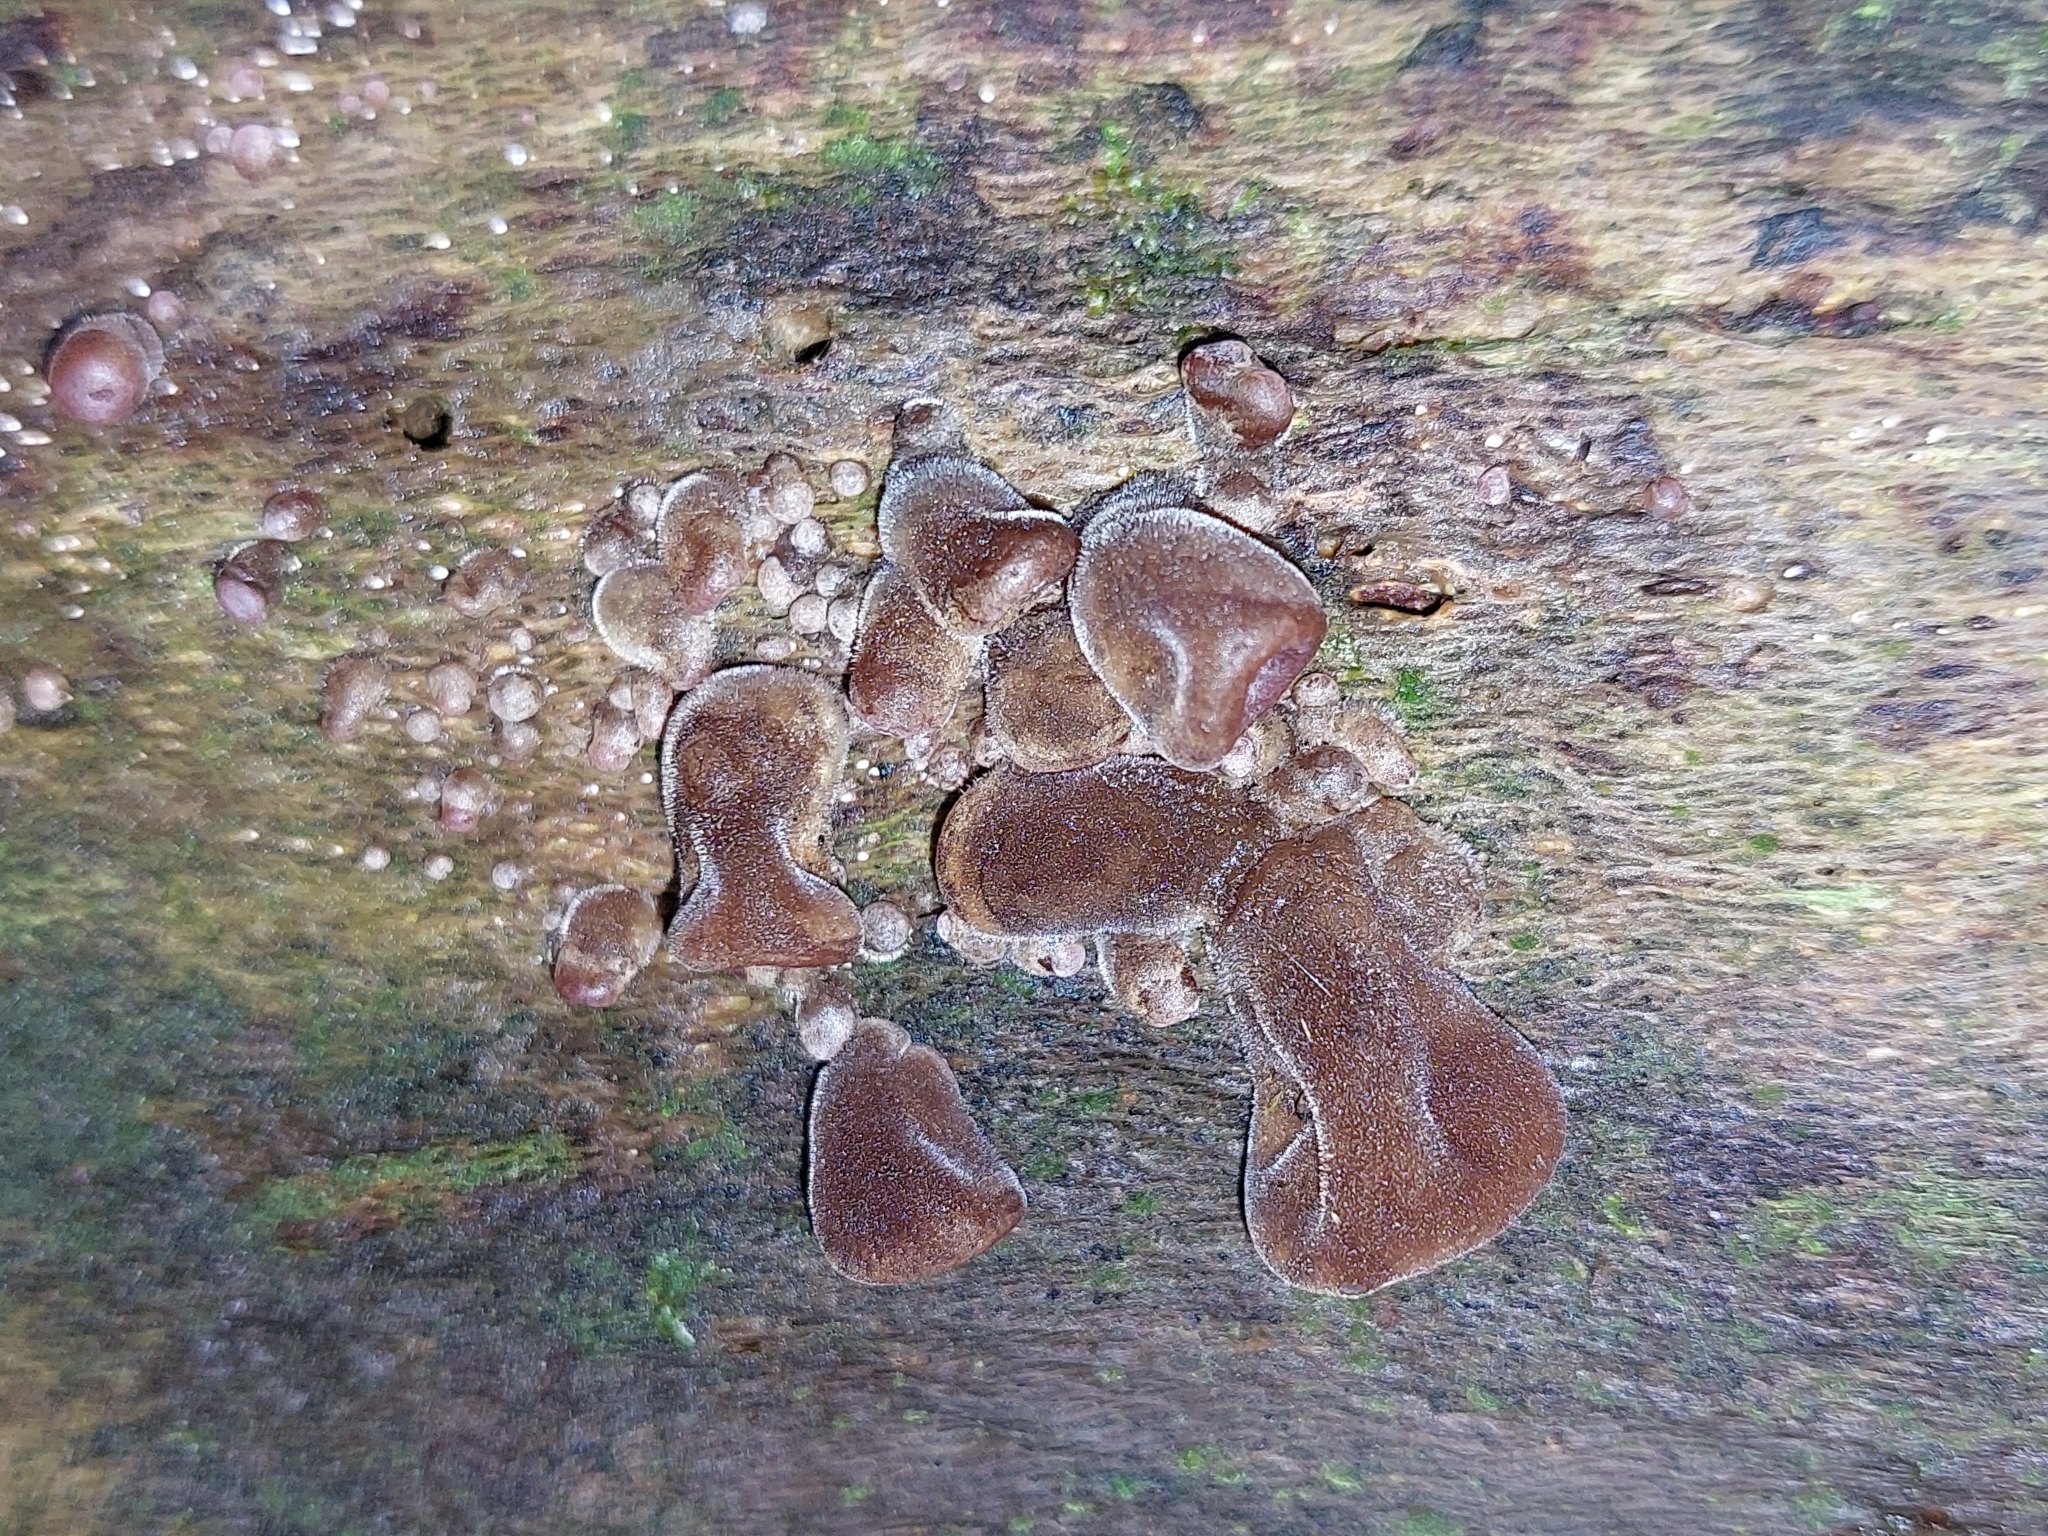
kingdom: Fungi
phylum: Basidiomycota
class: Agaricomycetes
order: Auriculariales
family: Auriculariaceae
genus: Auricularia
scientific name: Auricularia cornea
